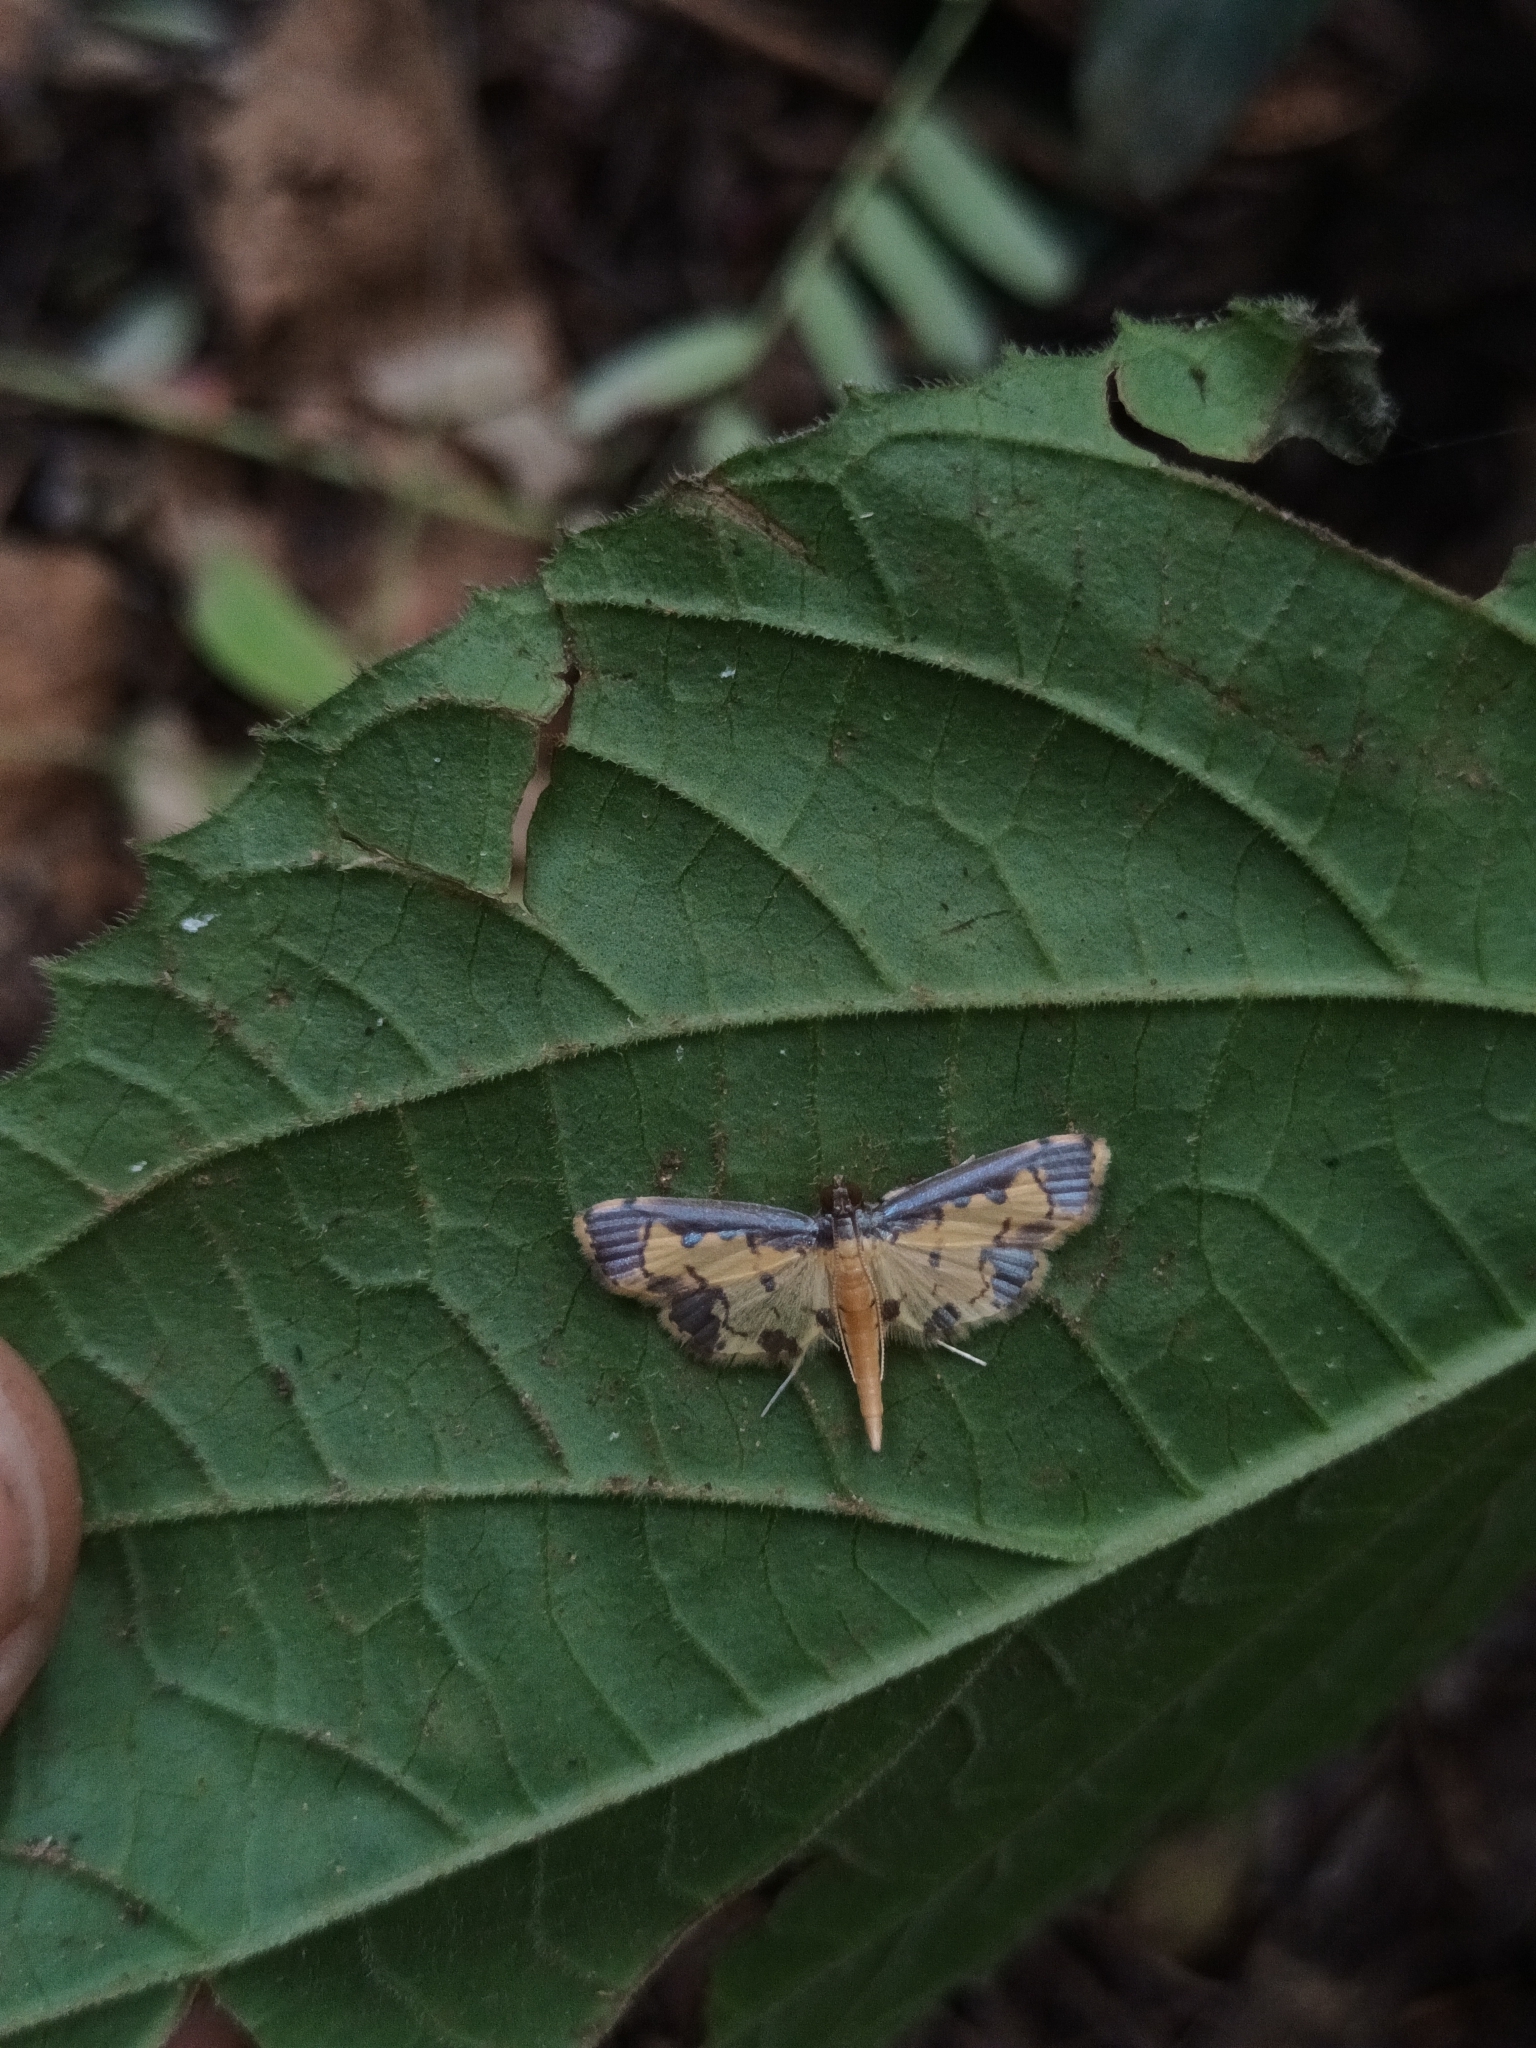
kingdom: Animalia
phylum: Arthropoda
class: Insecta
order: Lepidoptera
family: Crambidae
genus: Agrotera
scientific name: Agrotera
